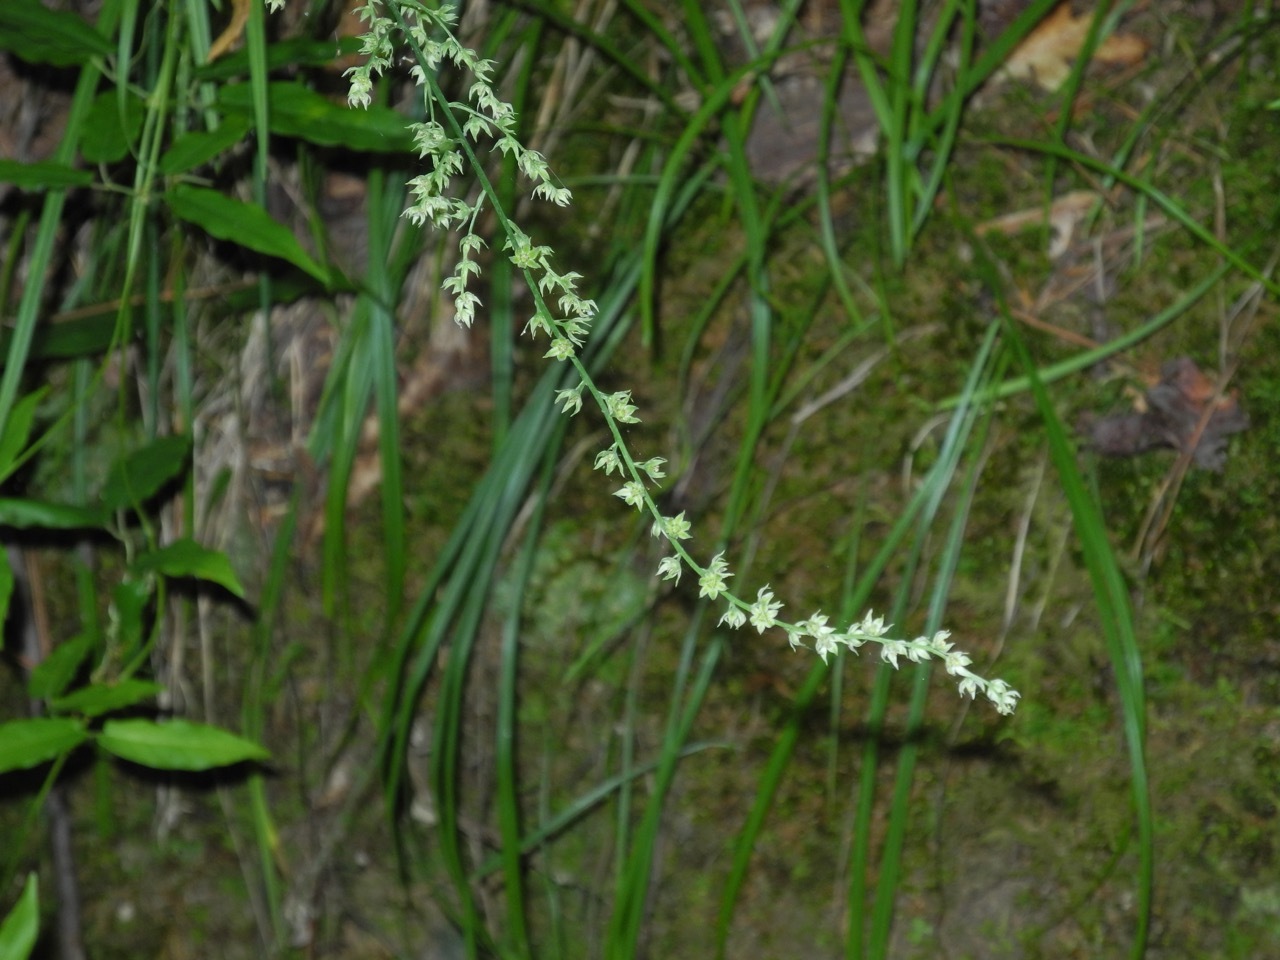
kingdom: Plantae
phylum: Tracheophyta
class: Liliopsida
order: Liliales
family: Melanthiaceae
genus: Stenanthium
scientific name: Stenanthium gramineum
